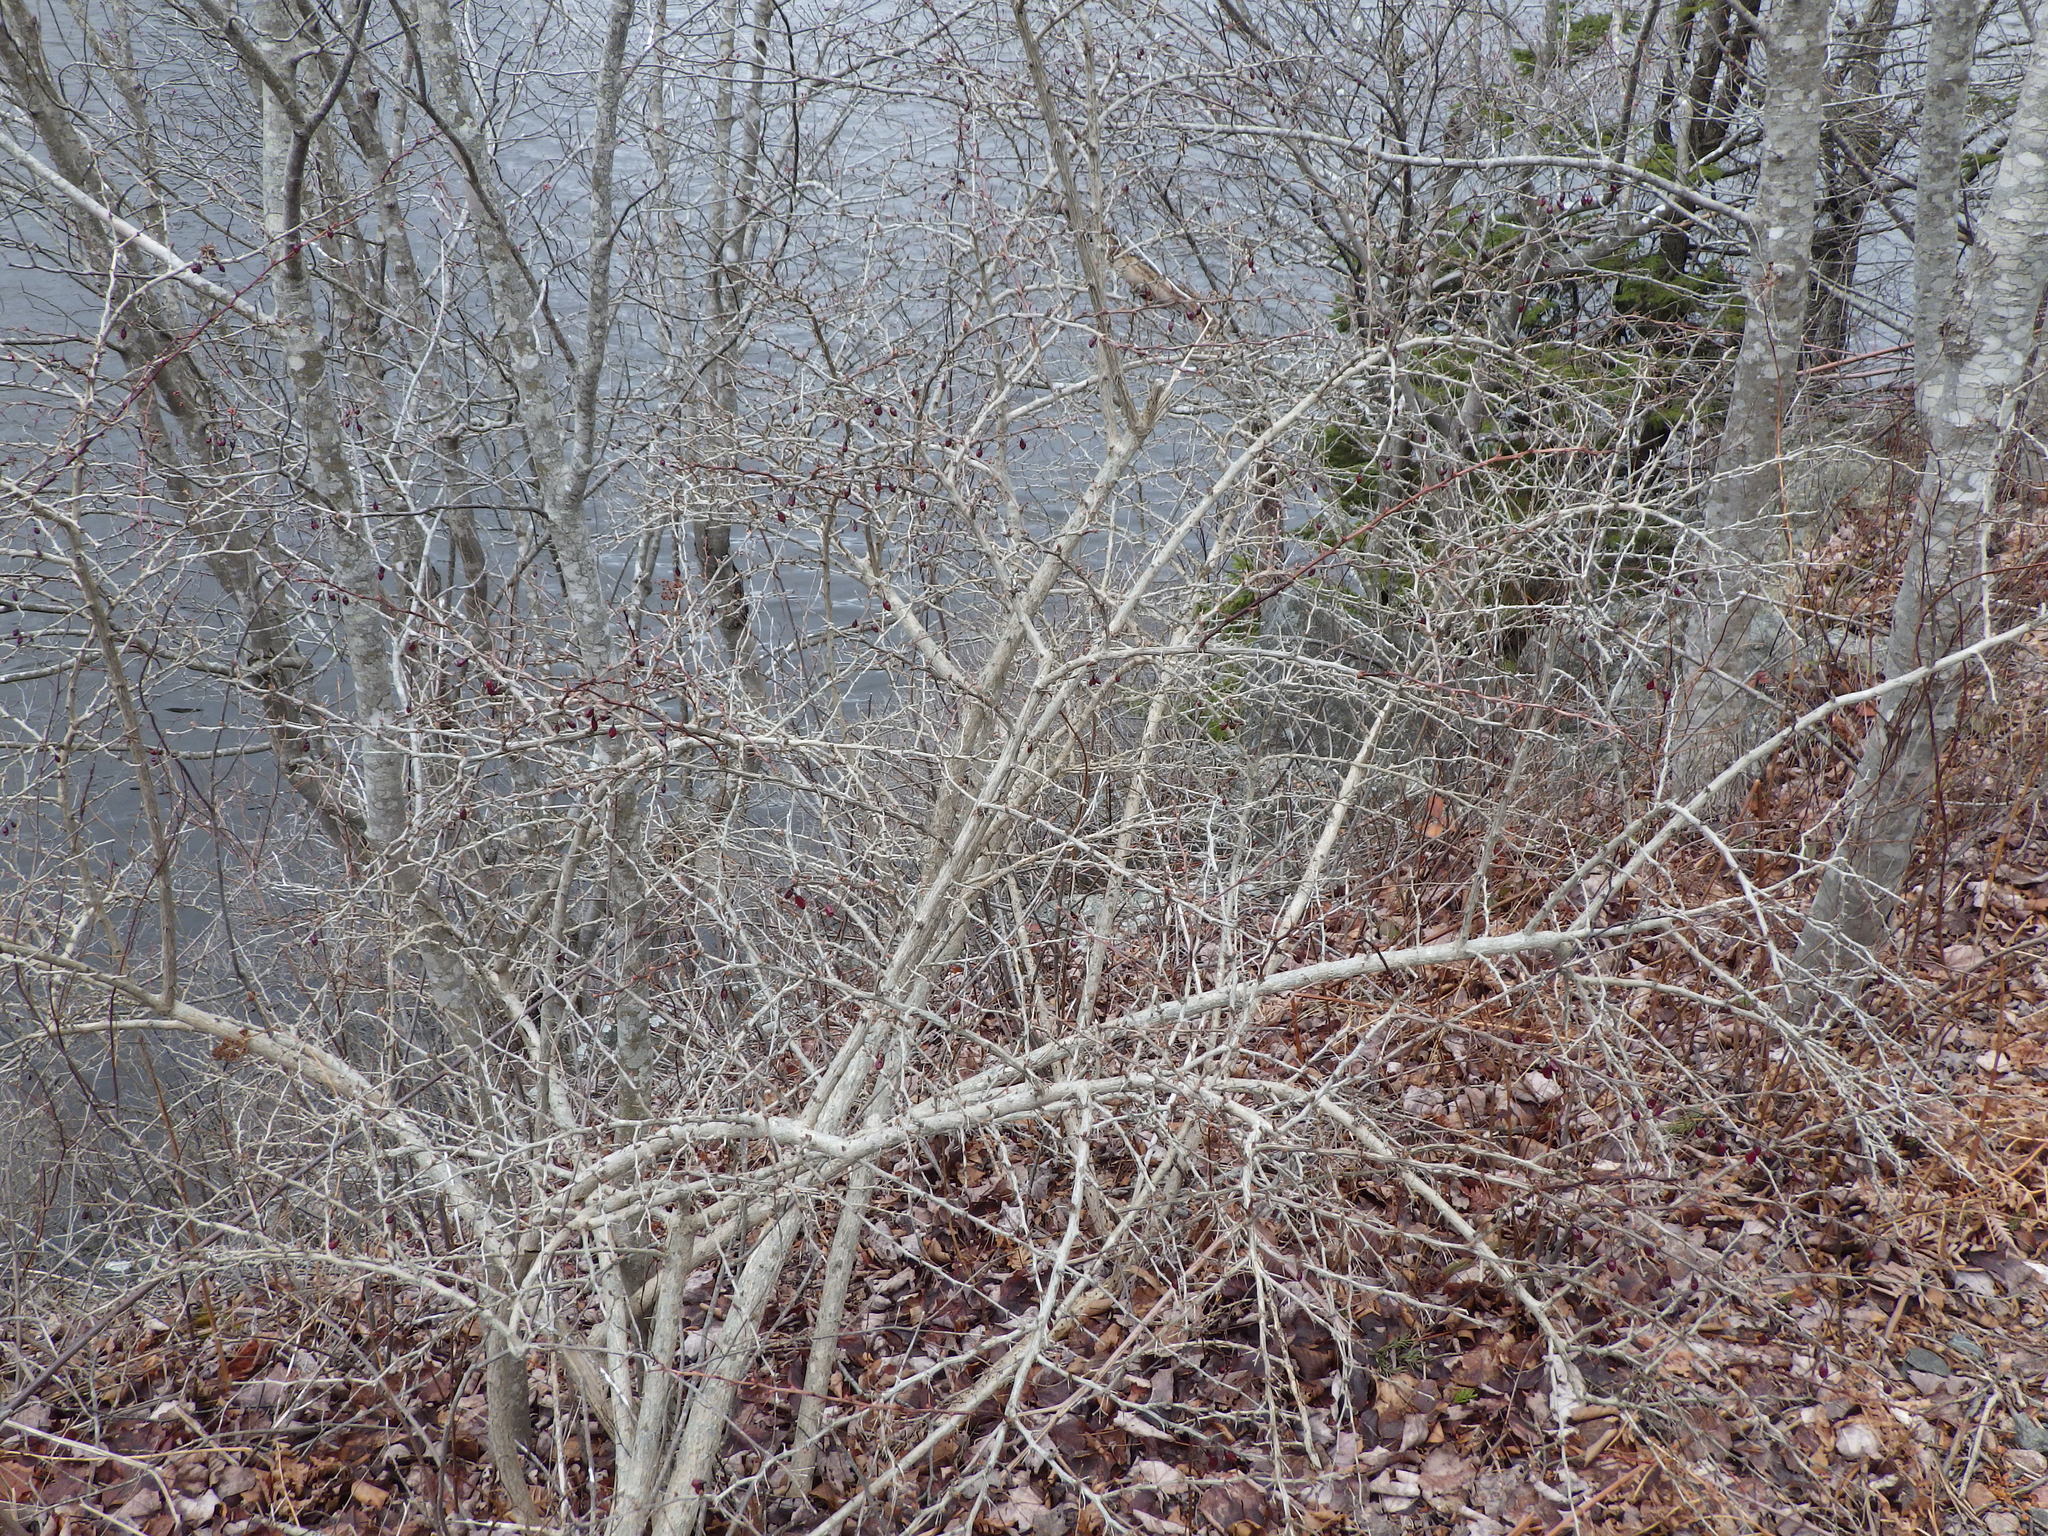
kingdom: Plantae
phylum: Tracheophyta
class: Magnoliopsida
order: Ranunculales
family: Berberidaceae
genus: Berberis
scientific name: Berberis thunbergii
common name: Japanese barberry
